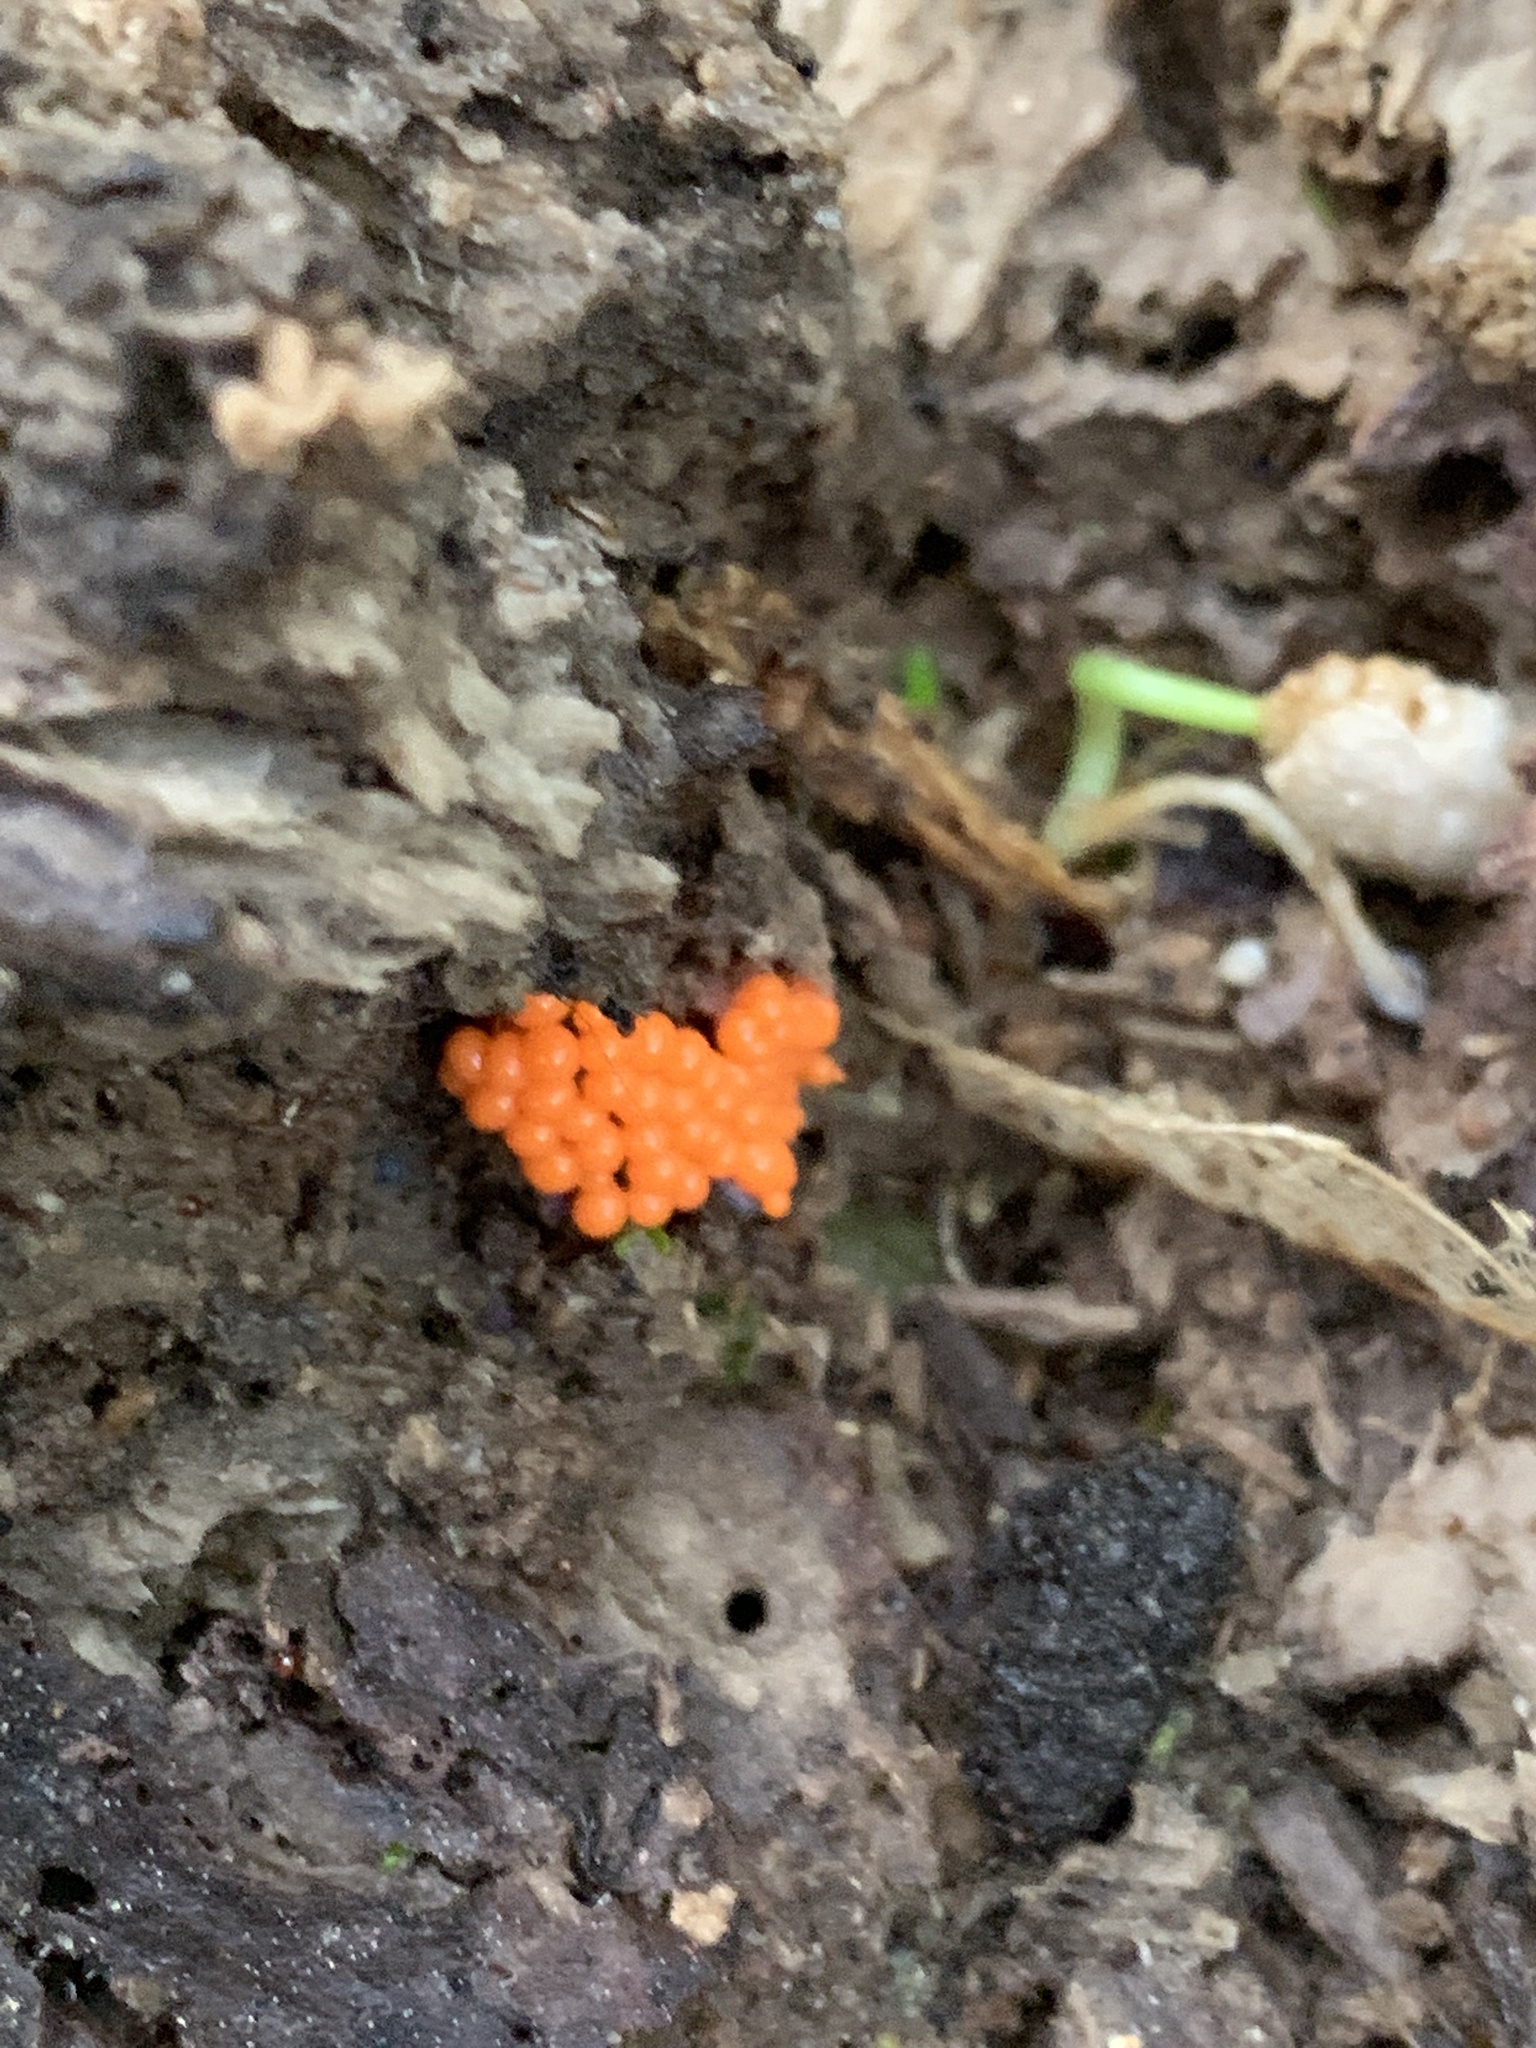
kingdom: Protozoa
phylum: Mycetozoa
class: Myxomycetes
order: Trichiales
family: Arcyriaceae
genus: Hemitrichia
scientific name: Hemitrichia decipiens
